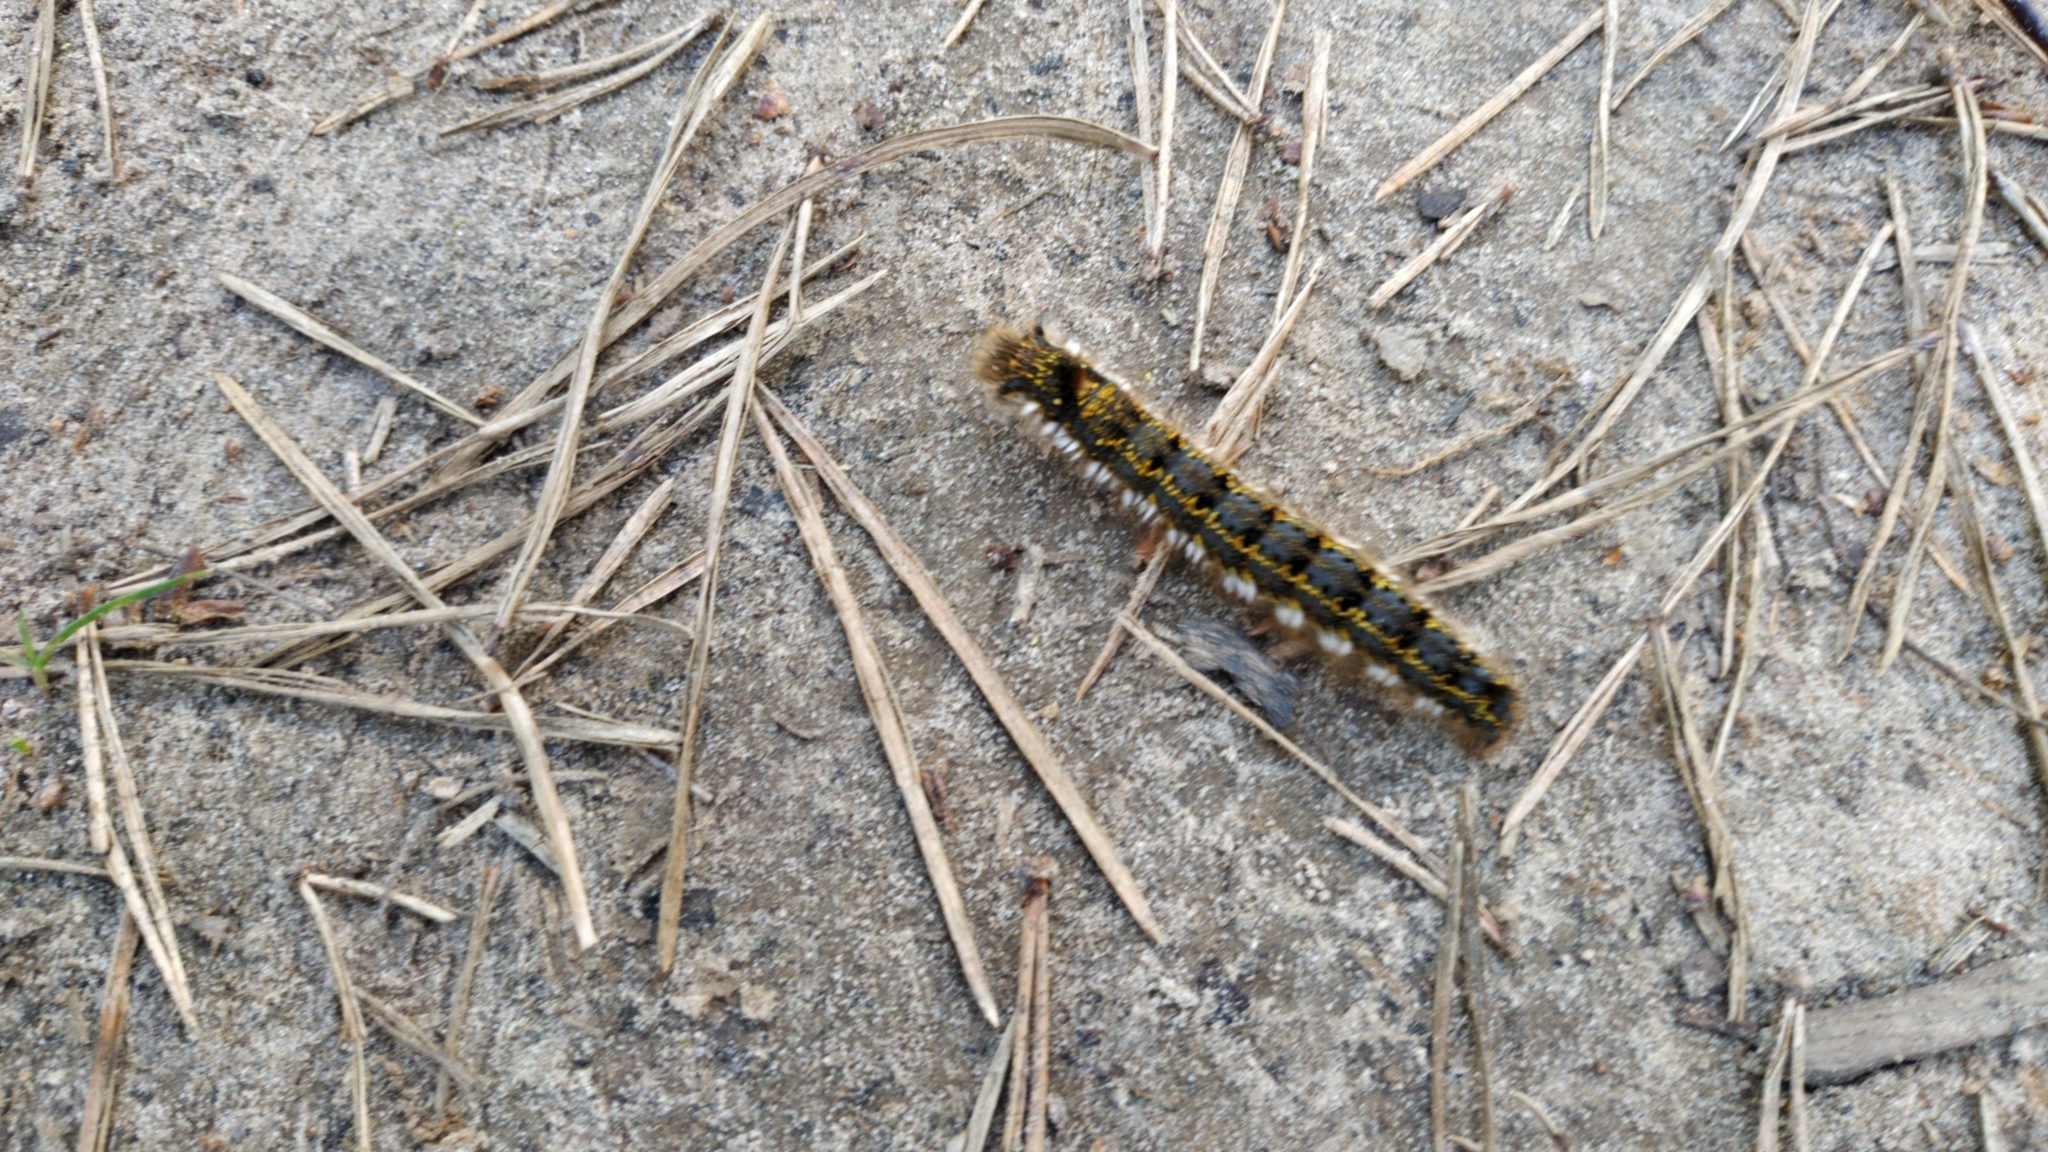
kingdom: Animalia
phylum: Arthropoda
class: Insecta
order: Lepidoptera
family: Lasiocampidae
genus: Euthrix
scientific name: Euthrix potatoria
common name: Drinker
